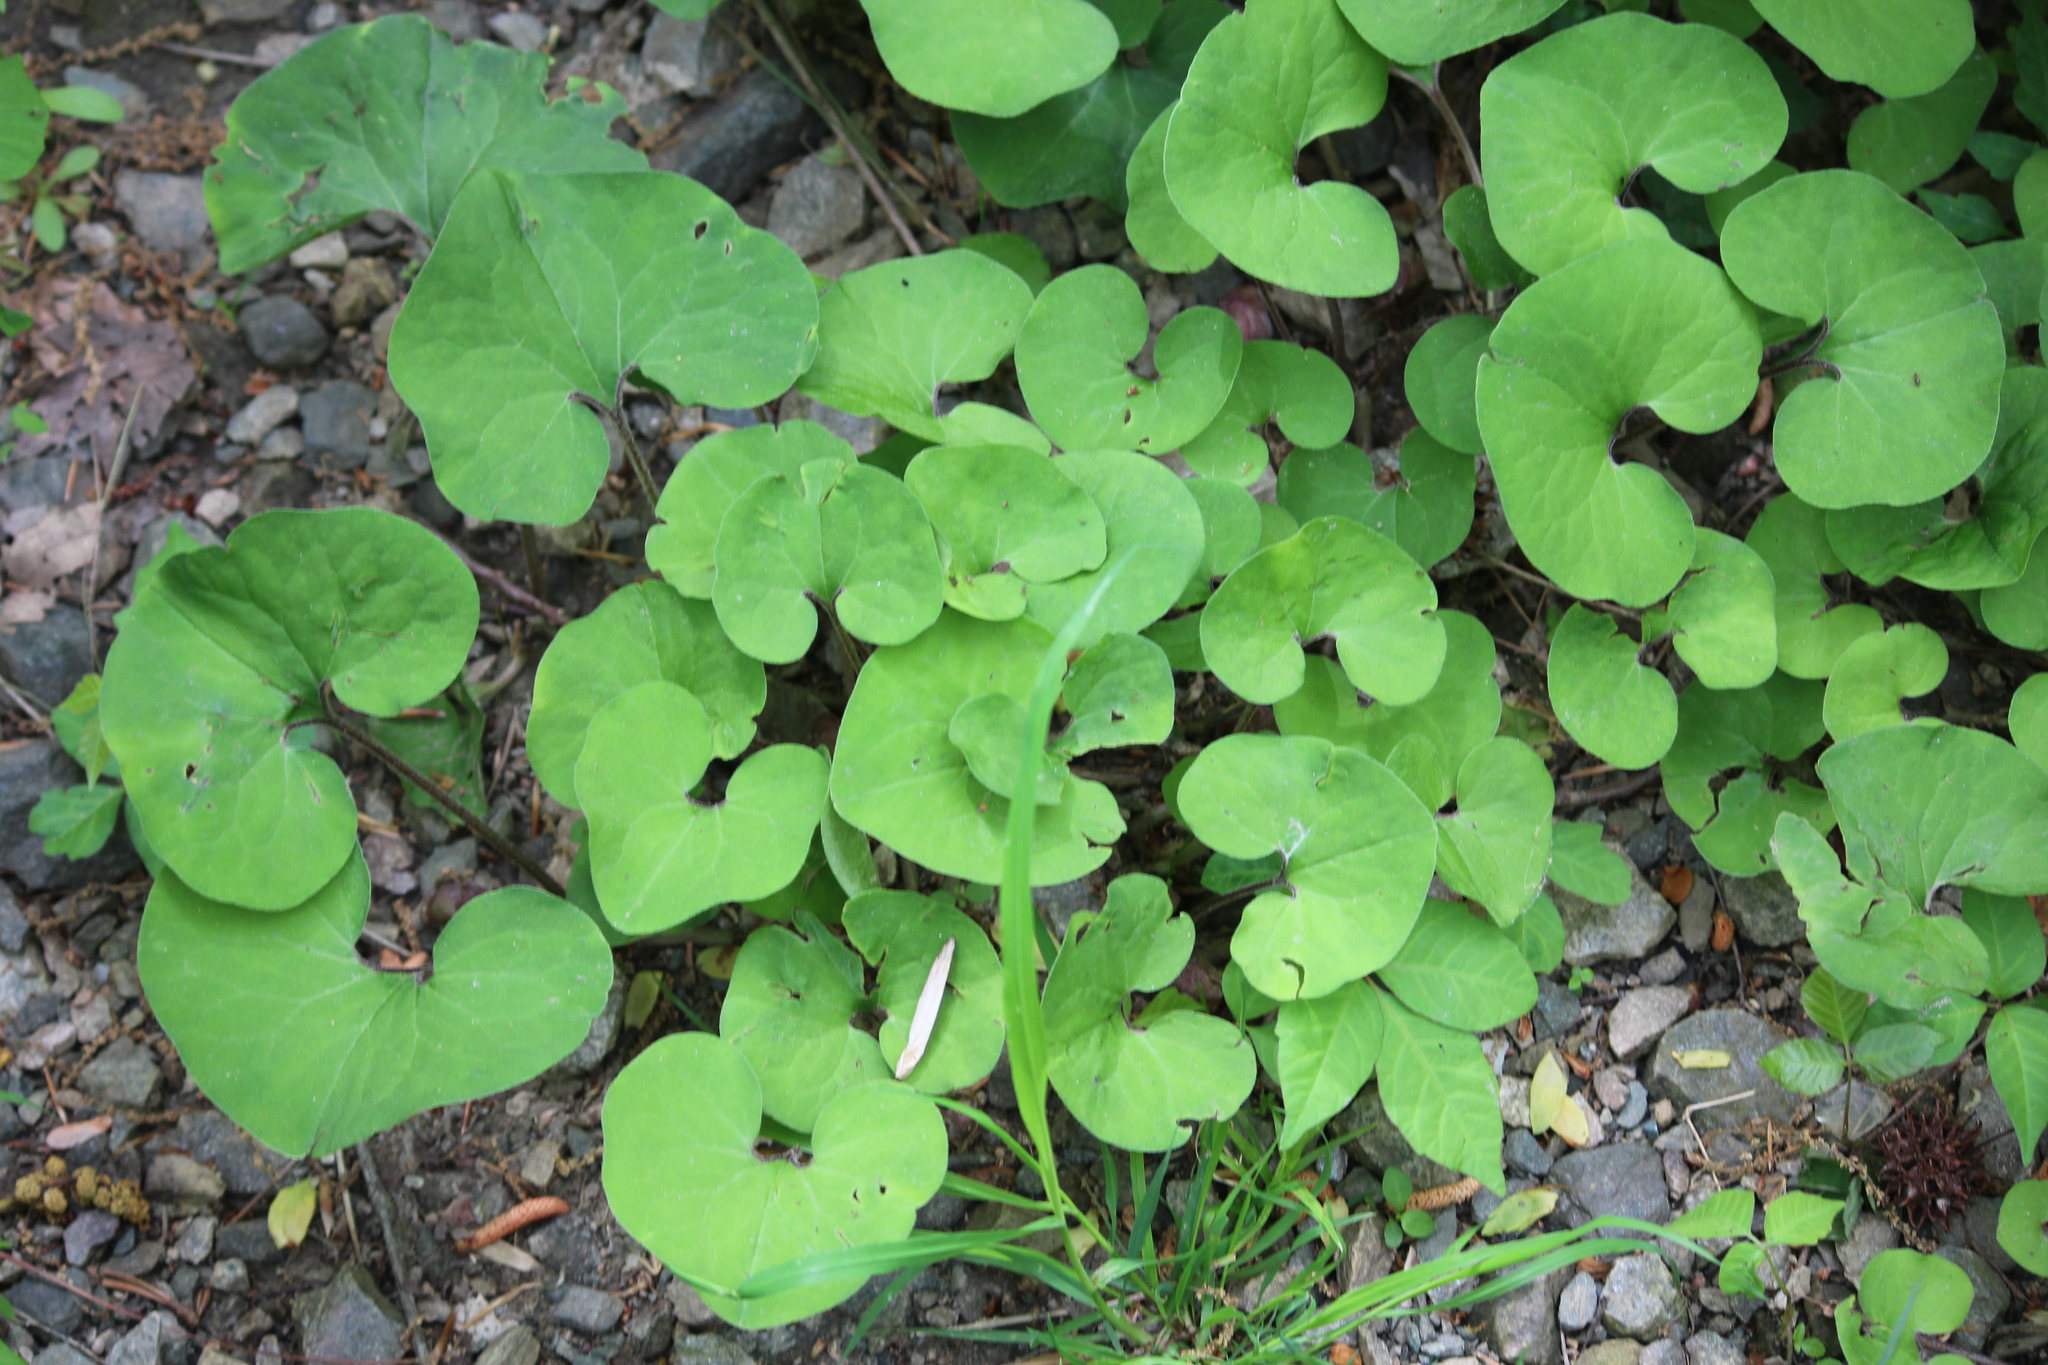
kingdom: Plantae
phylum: Tracheophyta
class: Magnoliopsida
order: Piperales
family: Aristolochiaceae
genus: Asarum
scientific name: Asarum canadense
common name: Wild ginger
